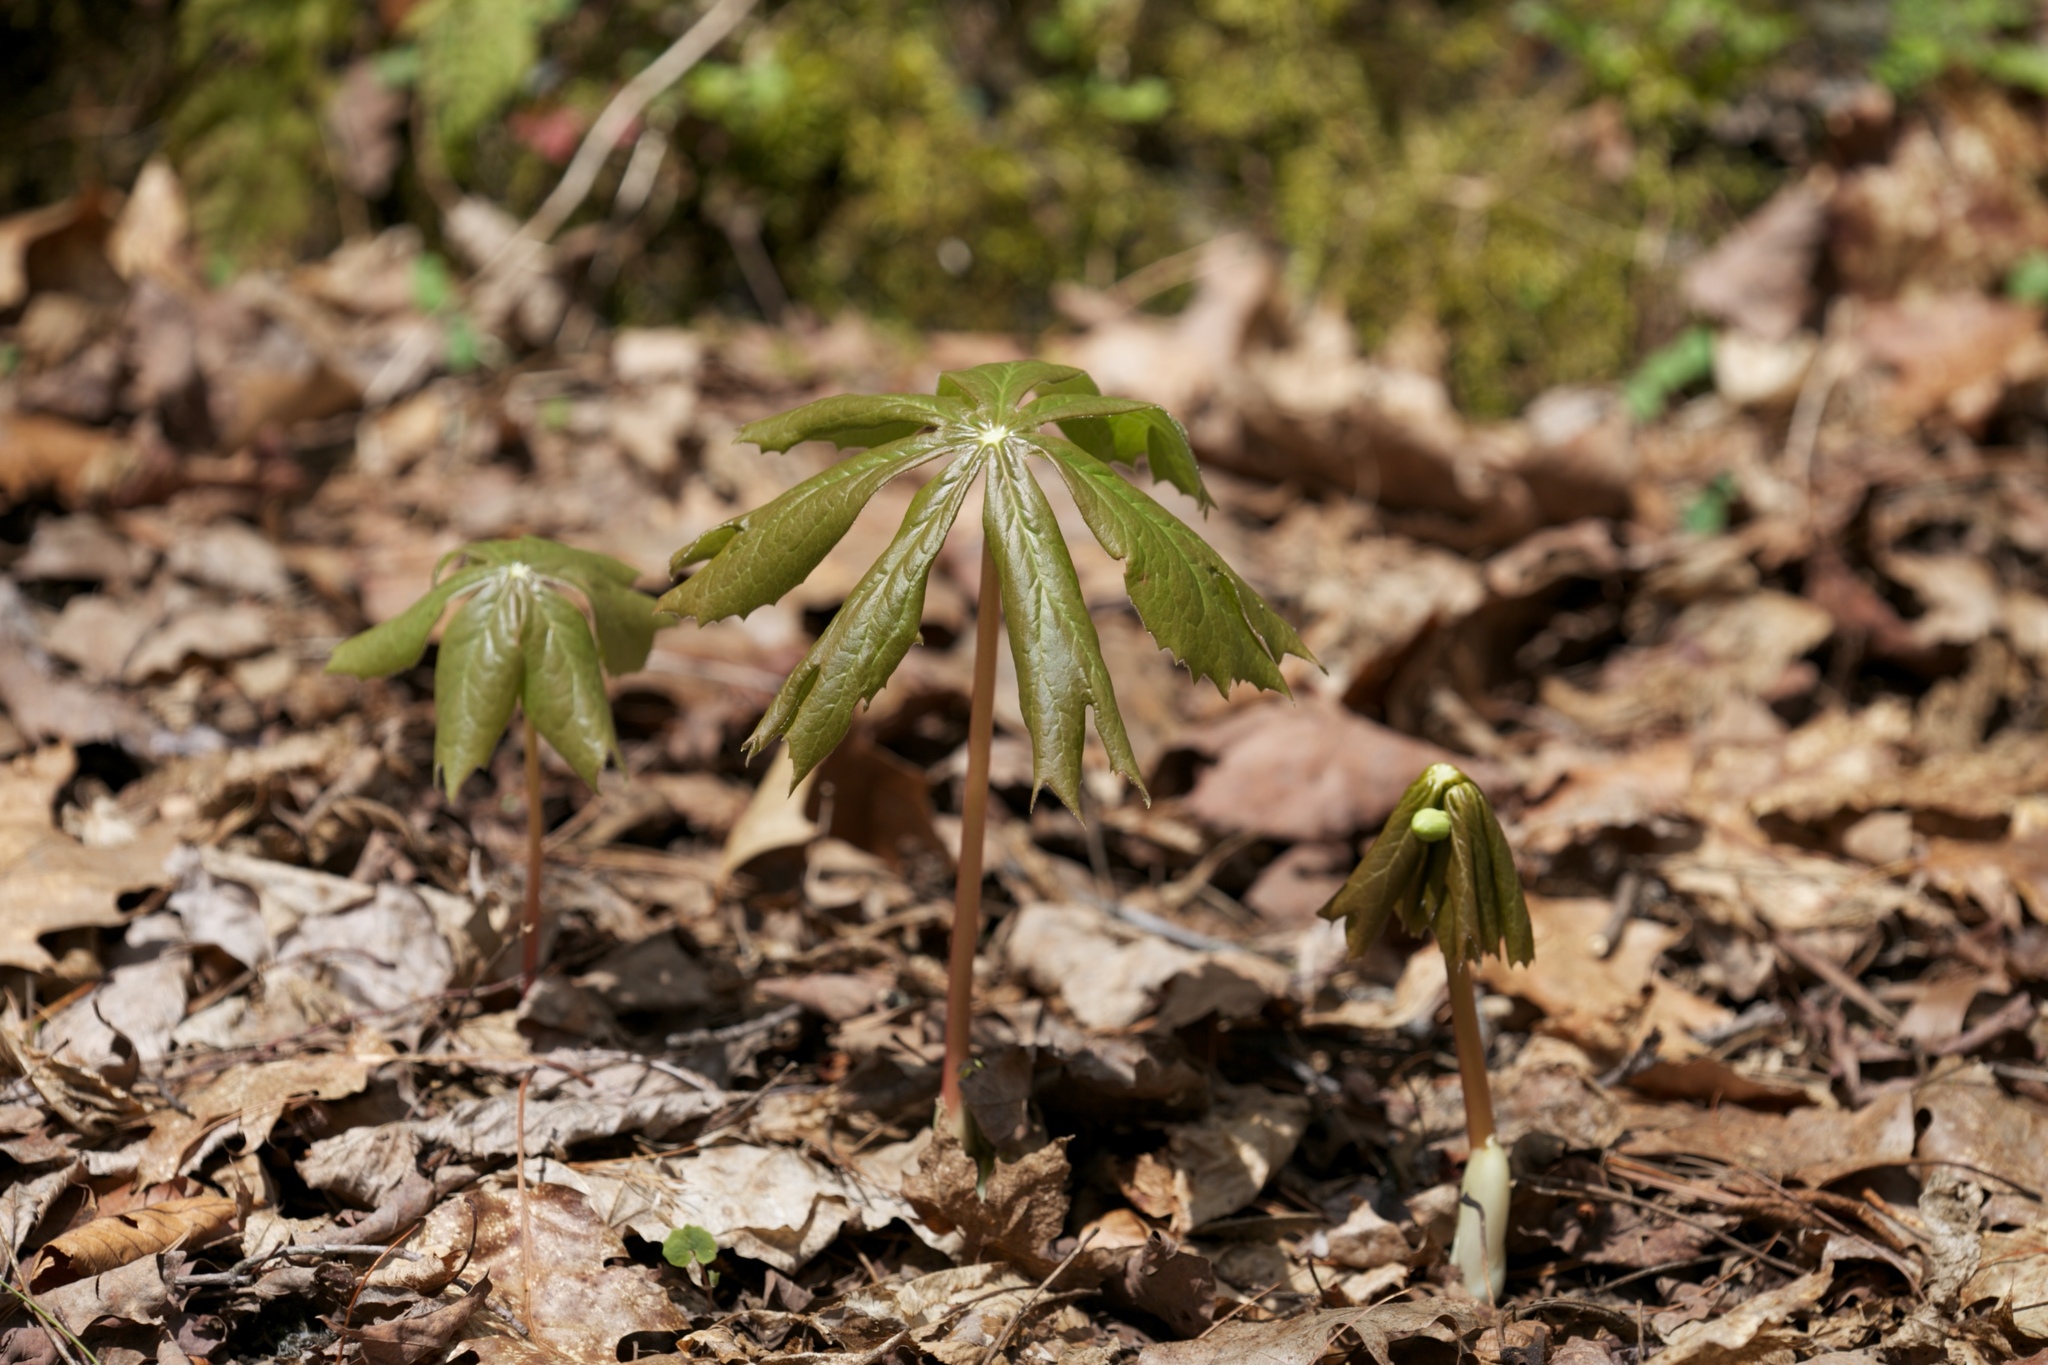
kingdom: Plantae
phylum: Tracheophyta
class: Magnoliopsida
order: Ranunculales
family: Berberidaceae
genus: Podophyllum
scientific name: Podophyllum peltatum
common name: Wild mandrake
